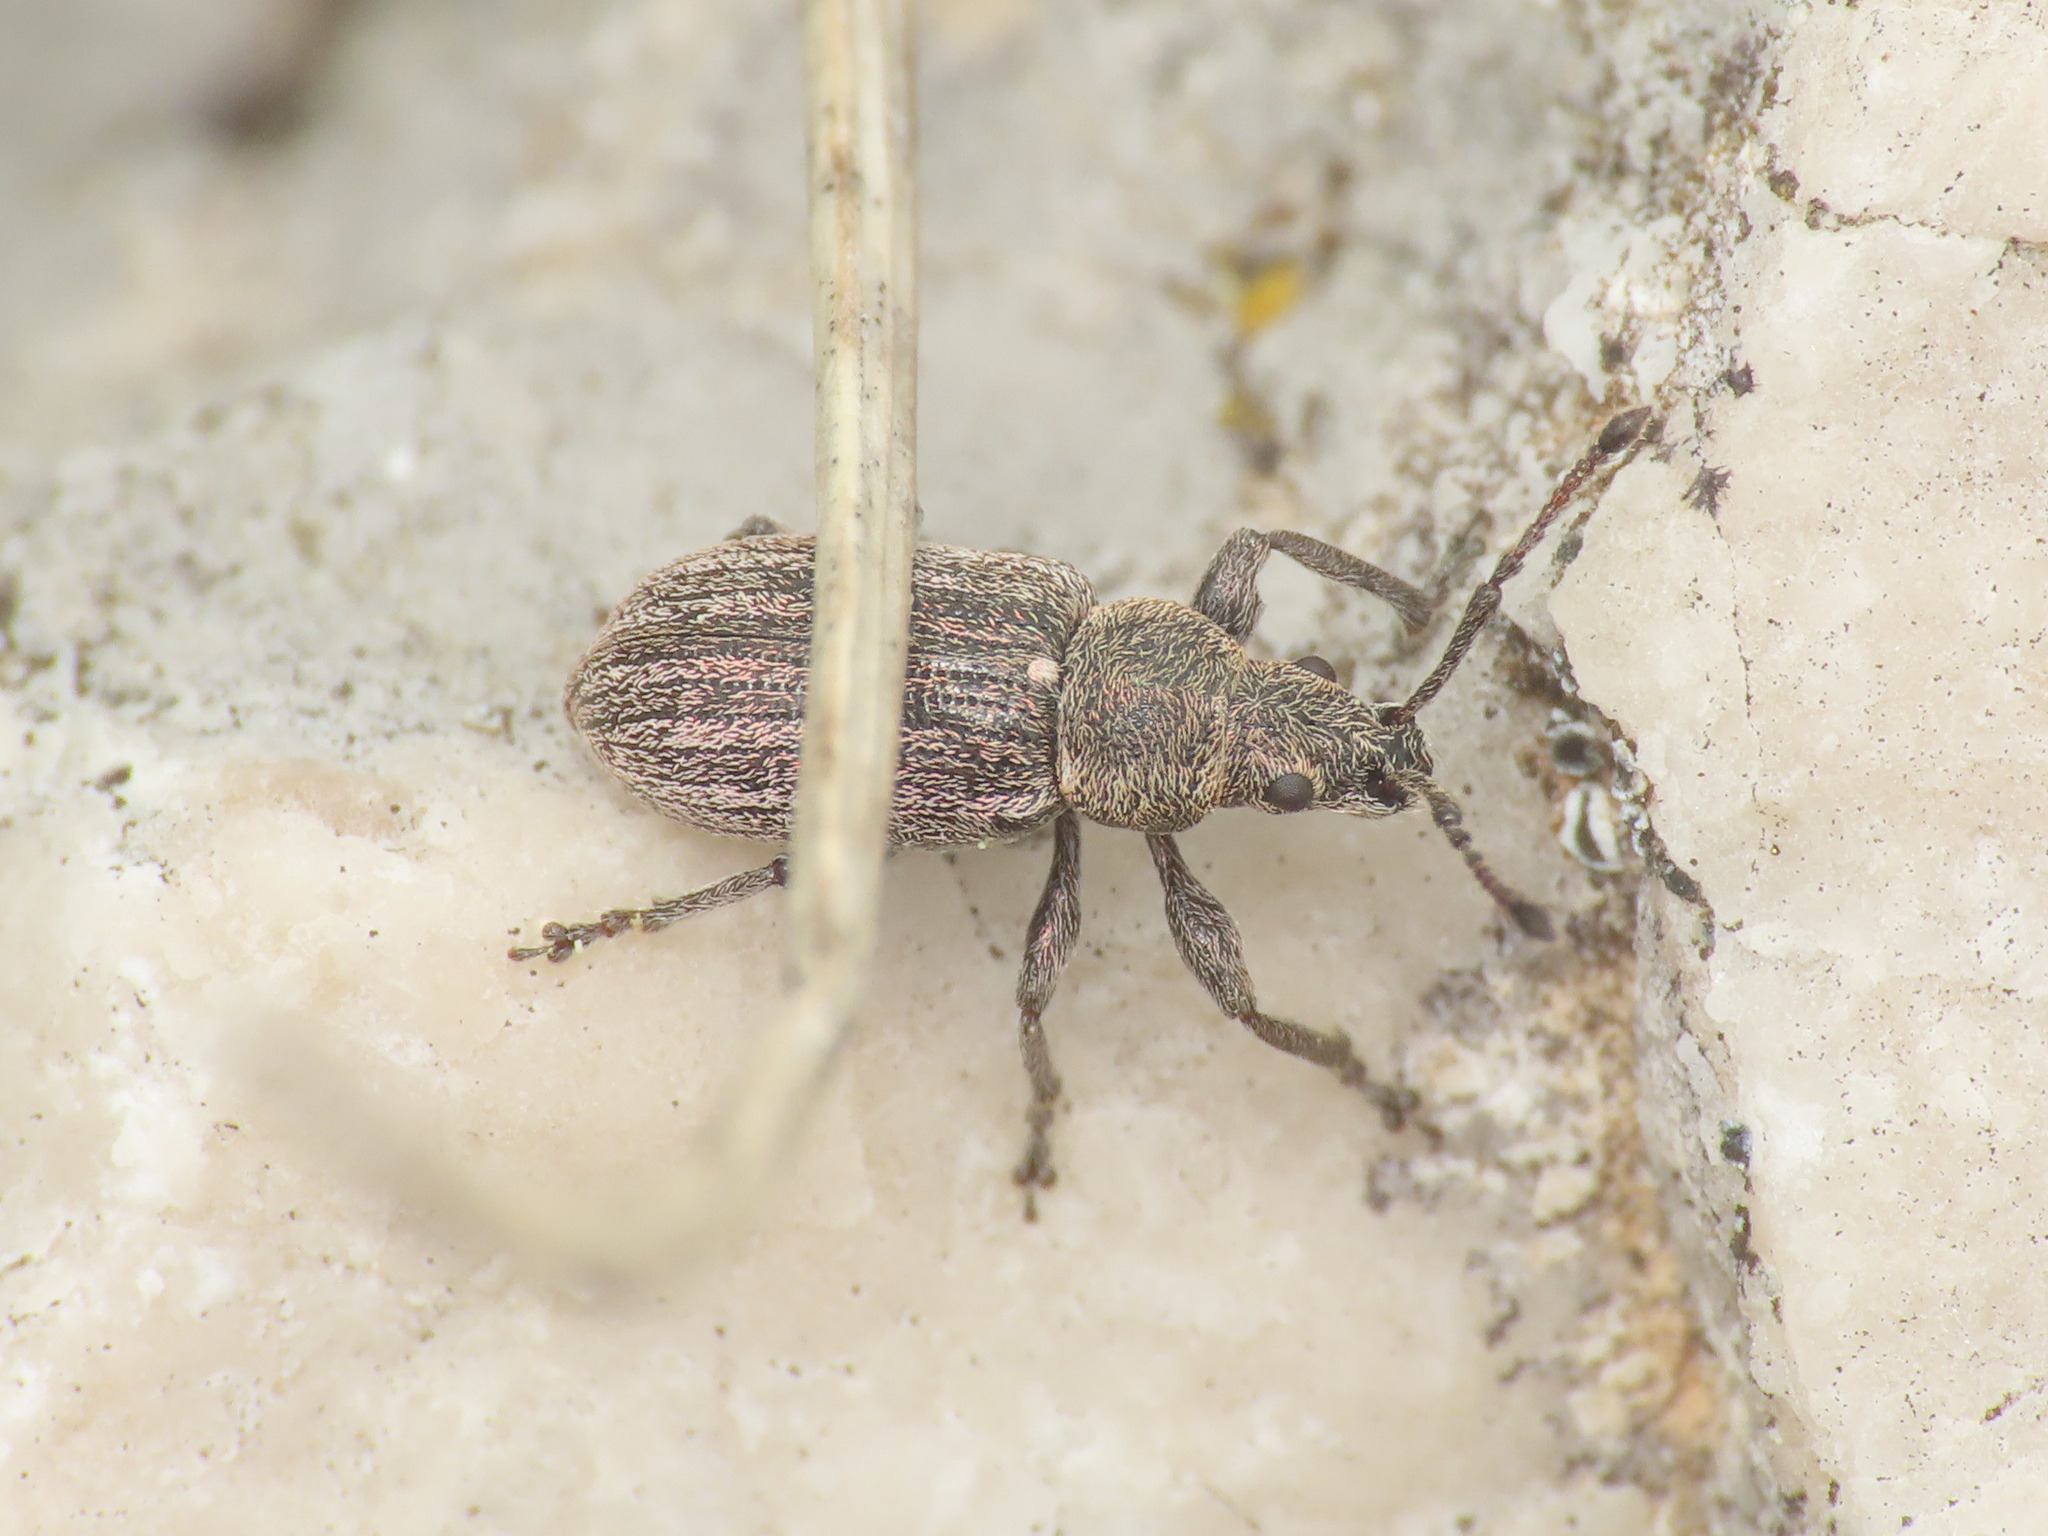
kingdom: Animalia
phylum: Arthropoda
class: Insecta
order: Coleoptera
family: Curculionidae
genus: Phyllobius
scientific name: Phyllobius pyri
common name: Common leaf weevil
